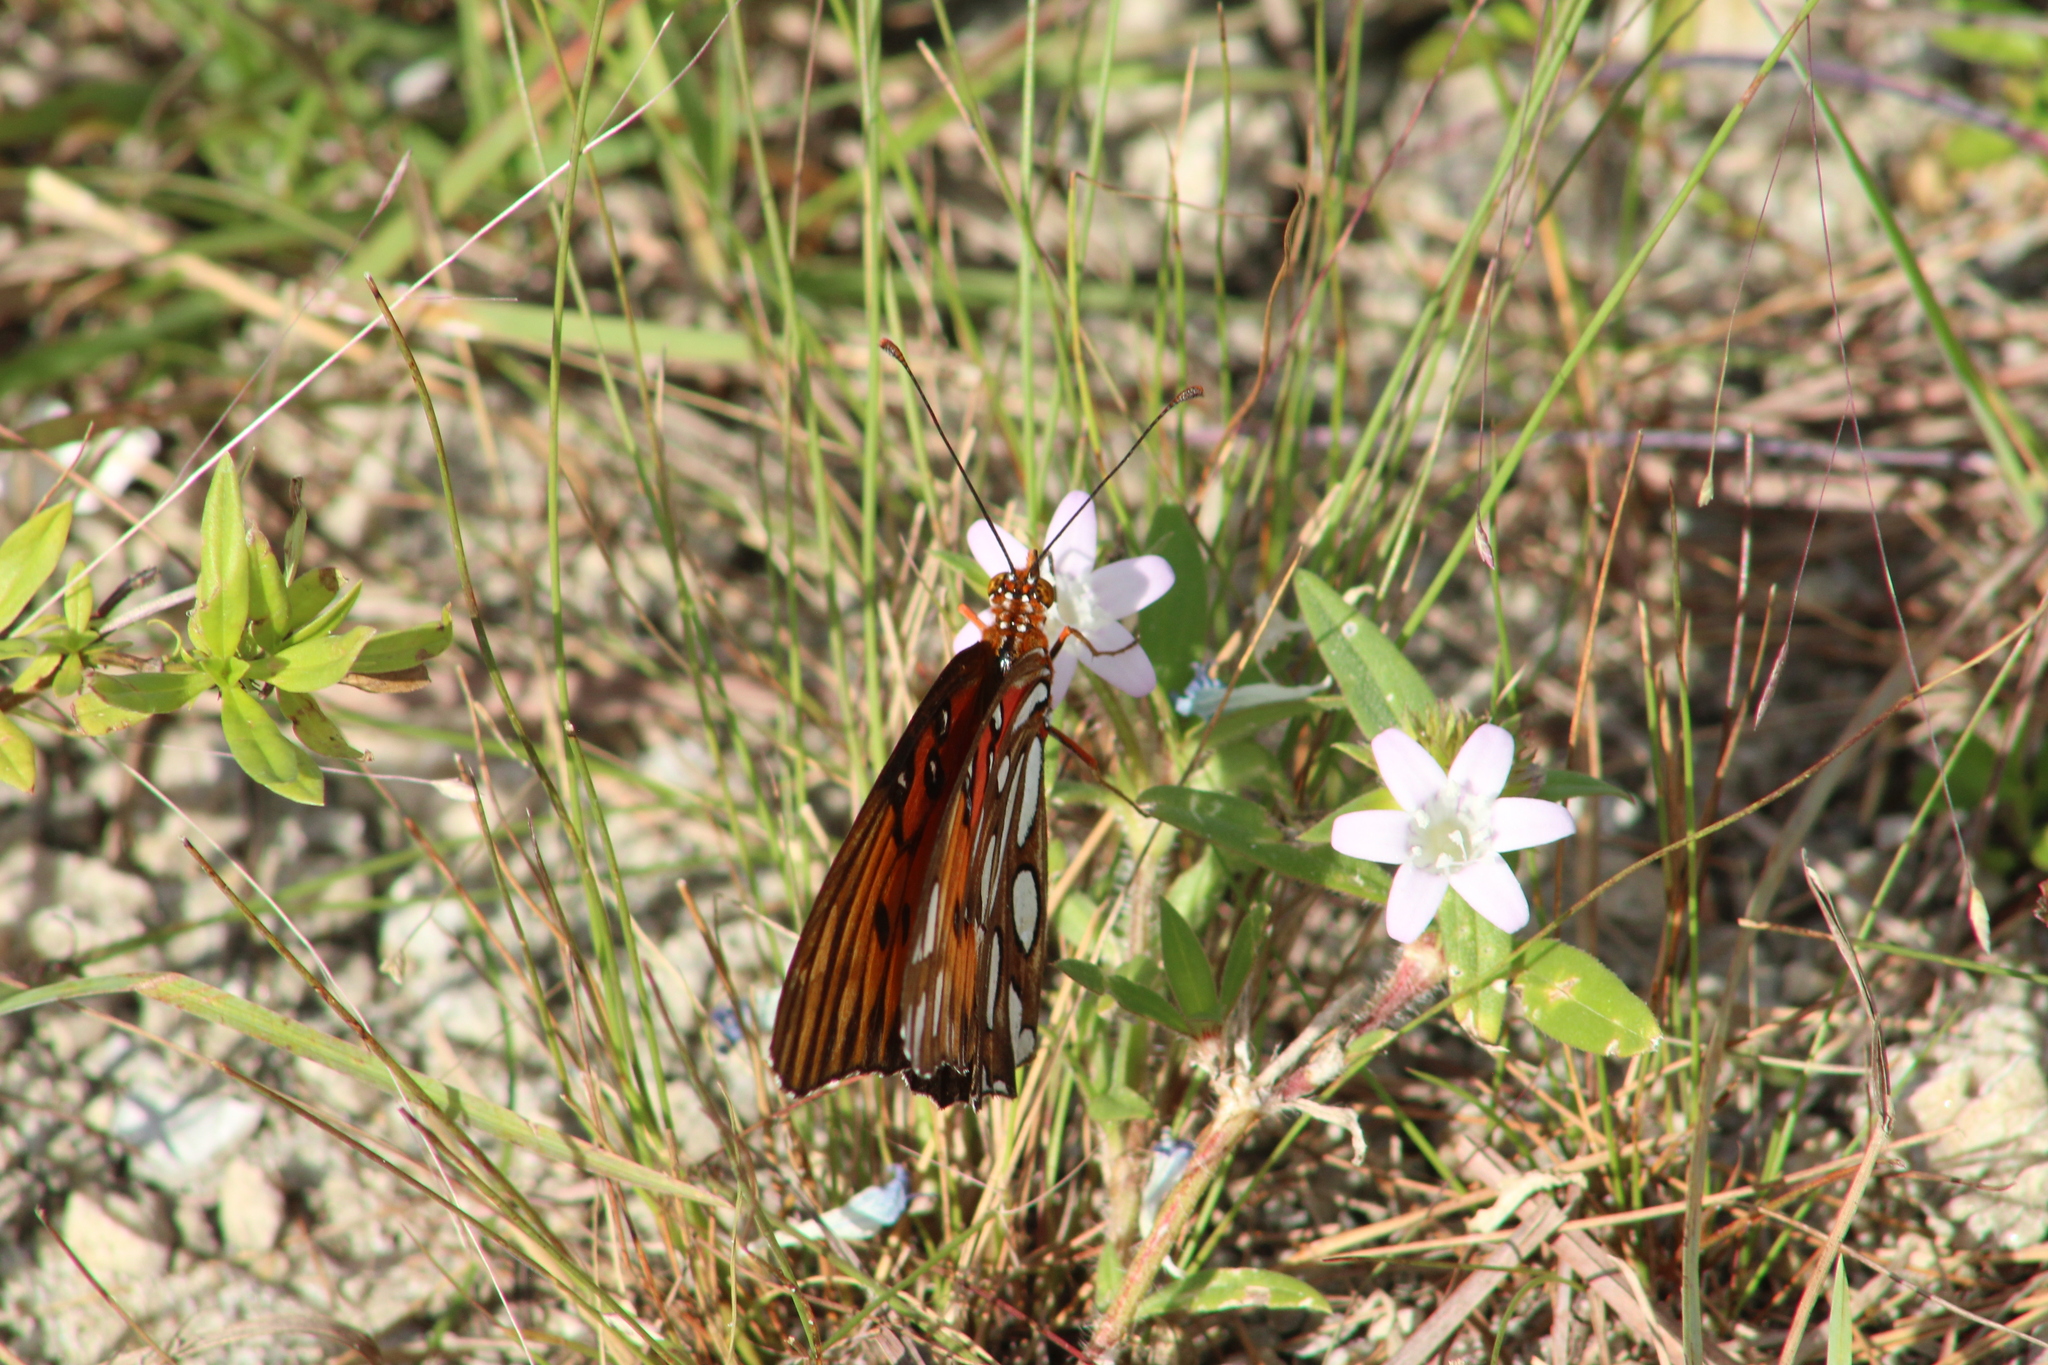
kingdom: Animalia
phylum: Arthropoda
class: Insecta
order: Lepidoptera
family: Nymphalidae
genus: Dione
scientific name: Dione vanillae
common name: Gulf fritillary
